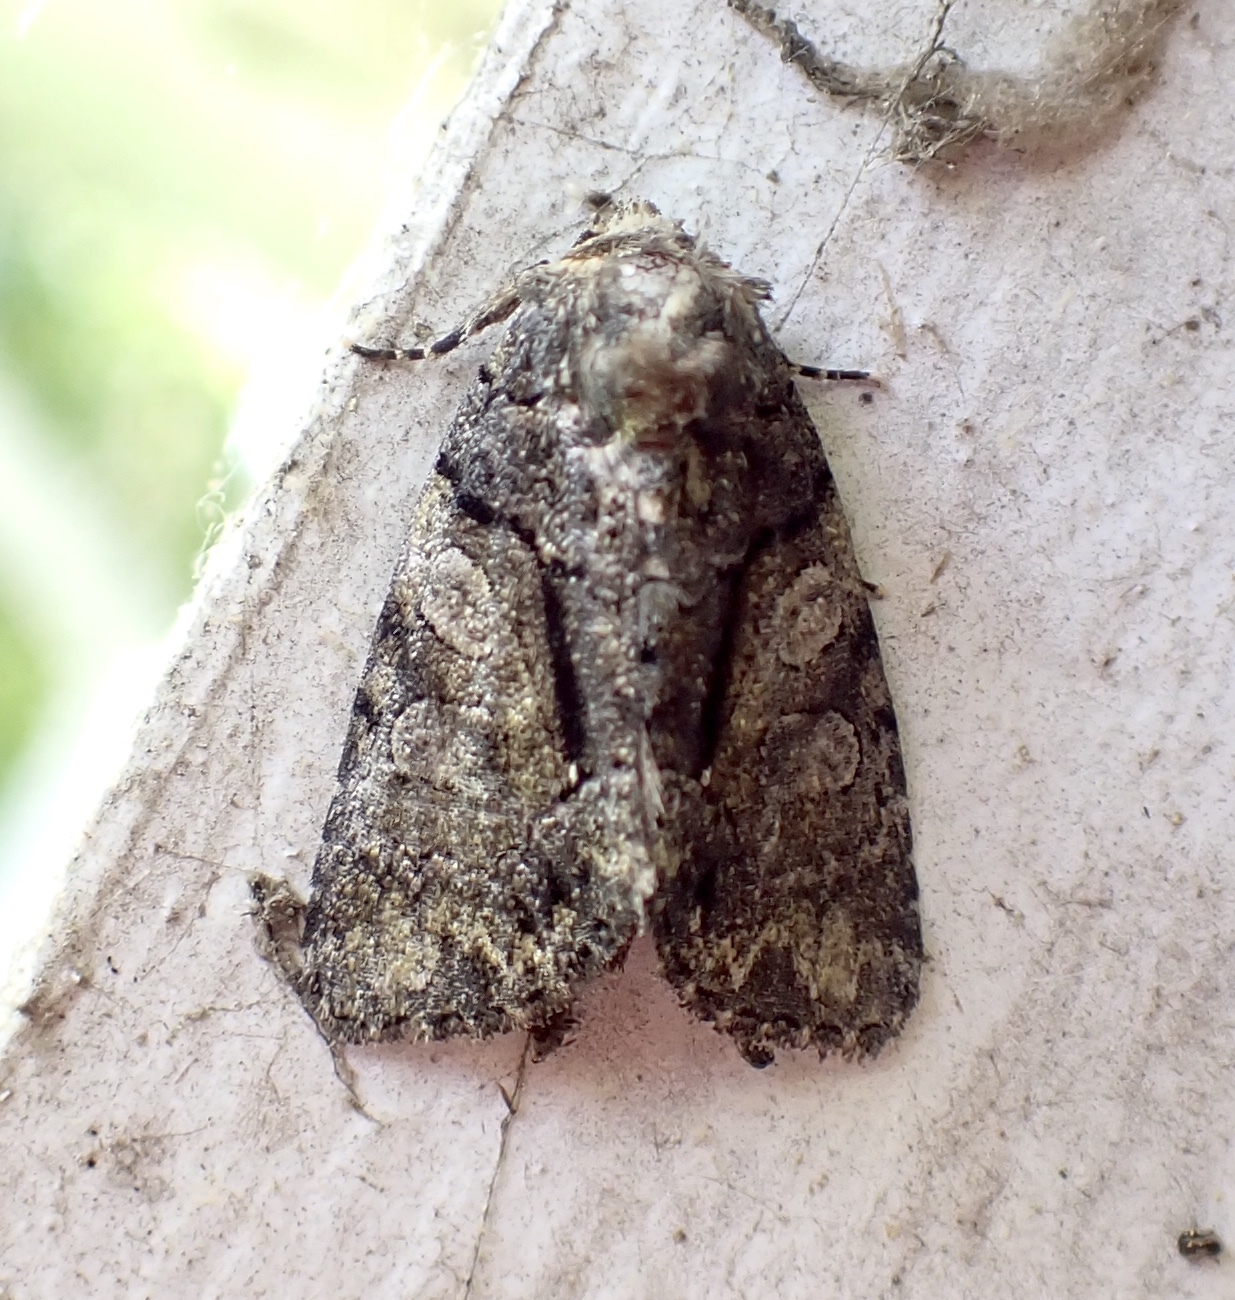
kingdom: Animalia
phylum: Arthropoda
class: Insecta
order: Lepidoptera
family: Noctuidae
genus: Chytonix
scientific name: Chytonix palliatricula
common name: Cloaked marvel
